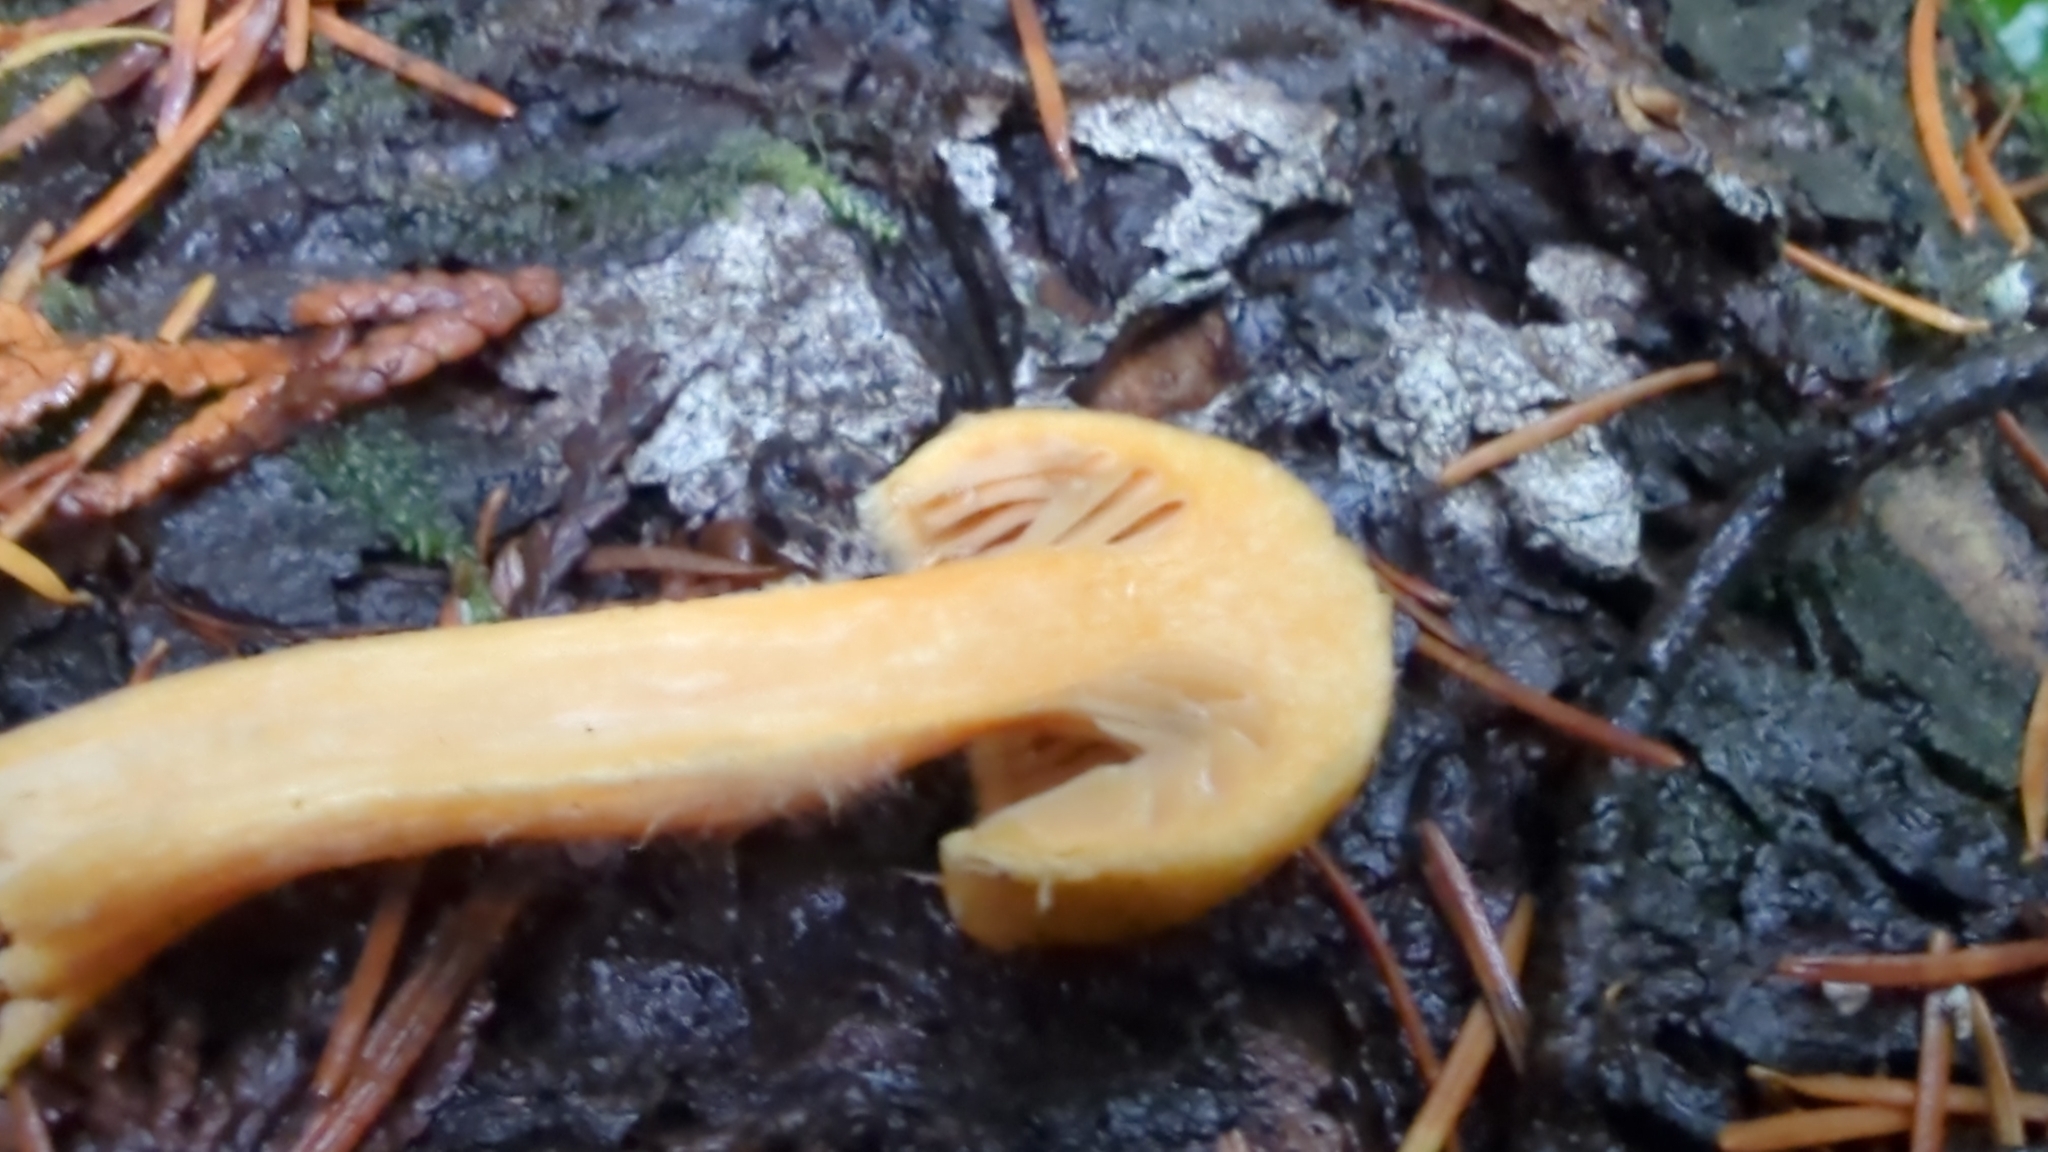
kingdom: Fungi
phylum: Basidiomycota
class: Agaricomycetes
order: Boletales
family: Gomphidiaceae
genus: Chroogomphus
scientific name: Chroogomphus tomentosus
